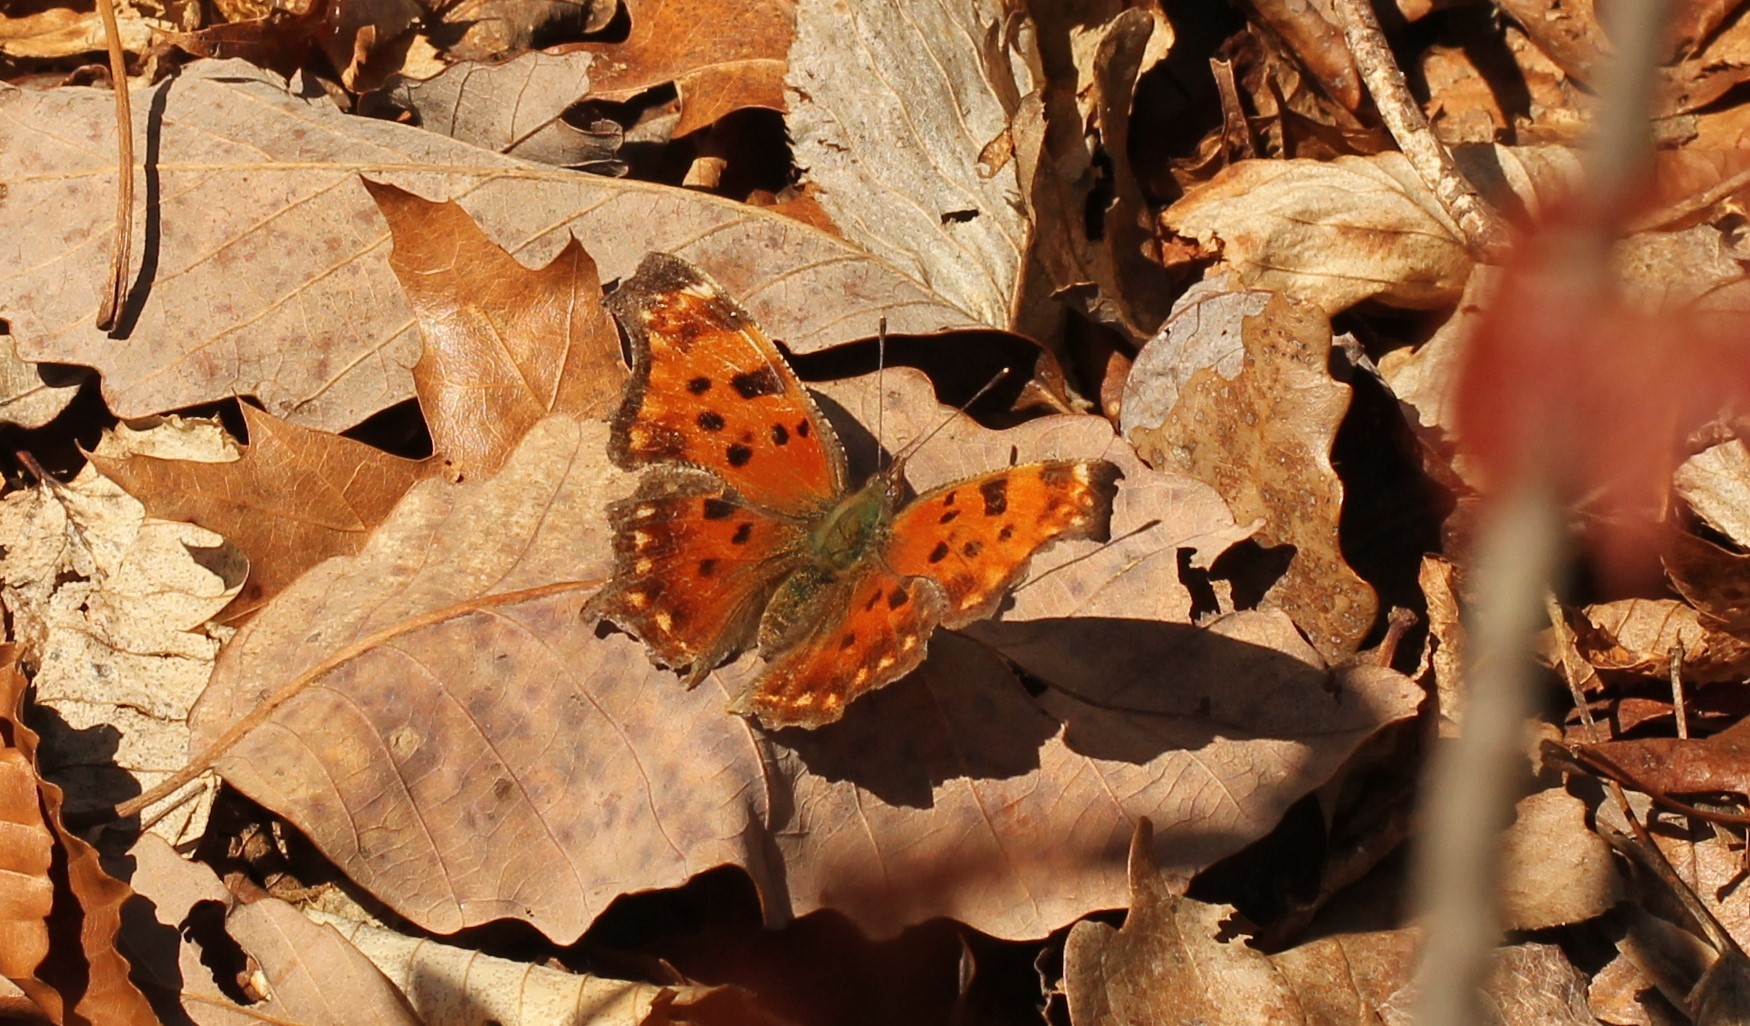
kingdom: Animalia
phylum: Arthropoda
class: Insecta
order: Lepidoptera
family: Nymphalidae
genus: Polygonia
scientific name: Polygonia comma
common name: Eastern comma
